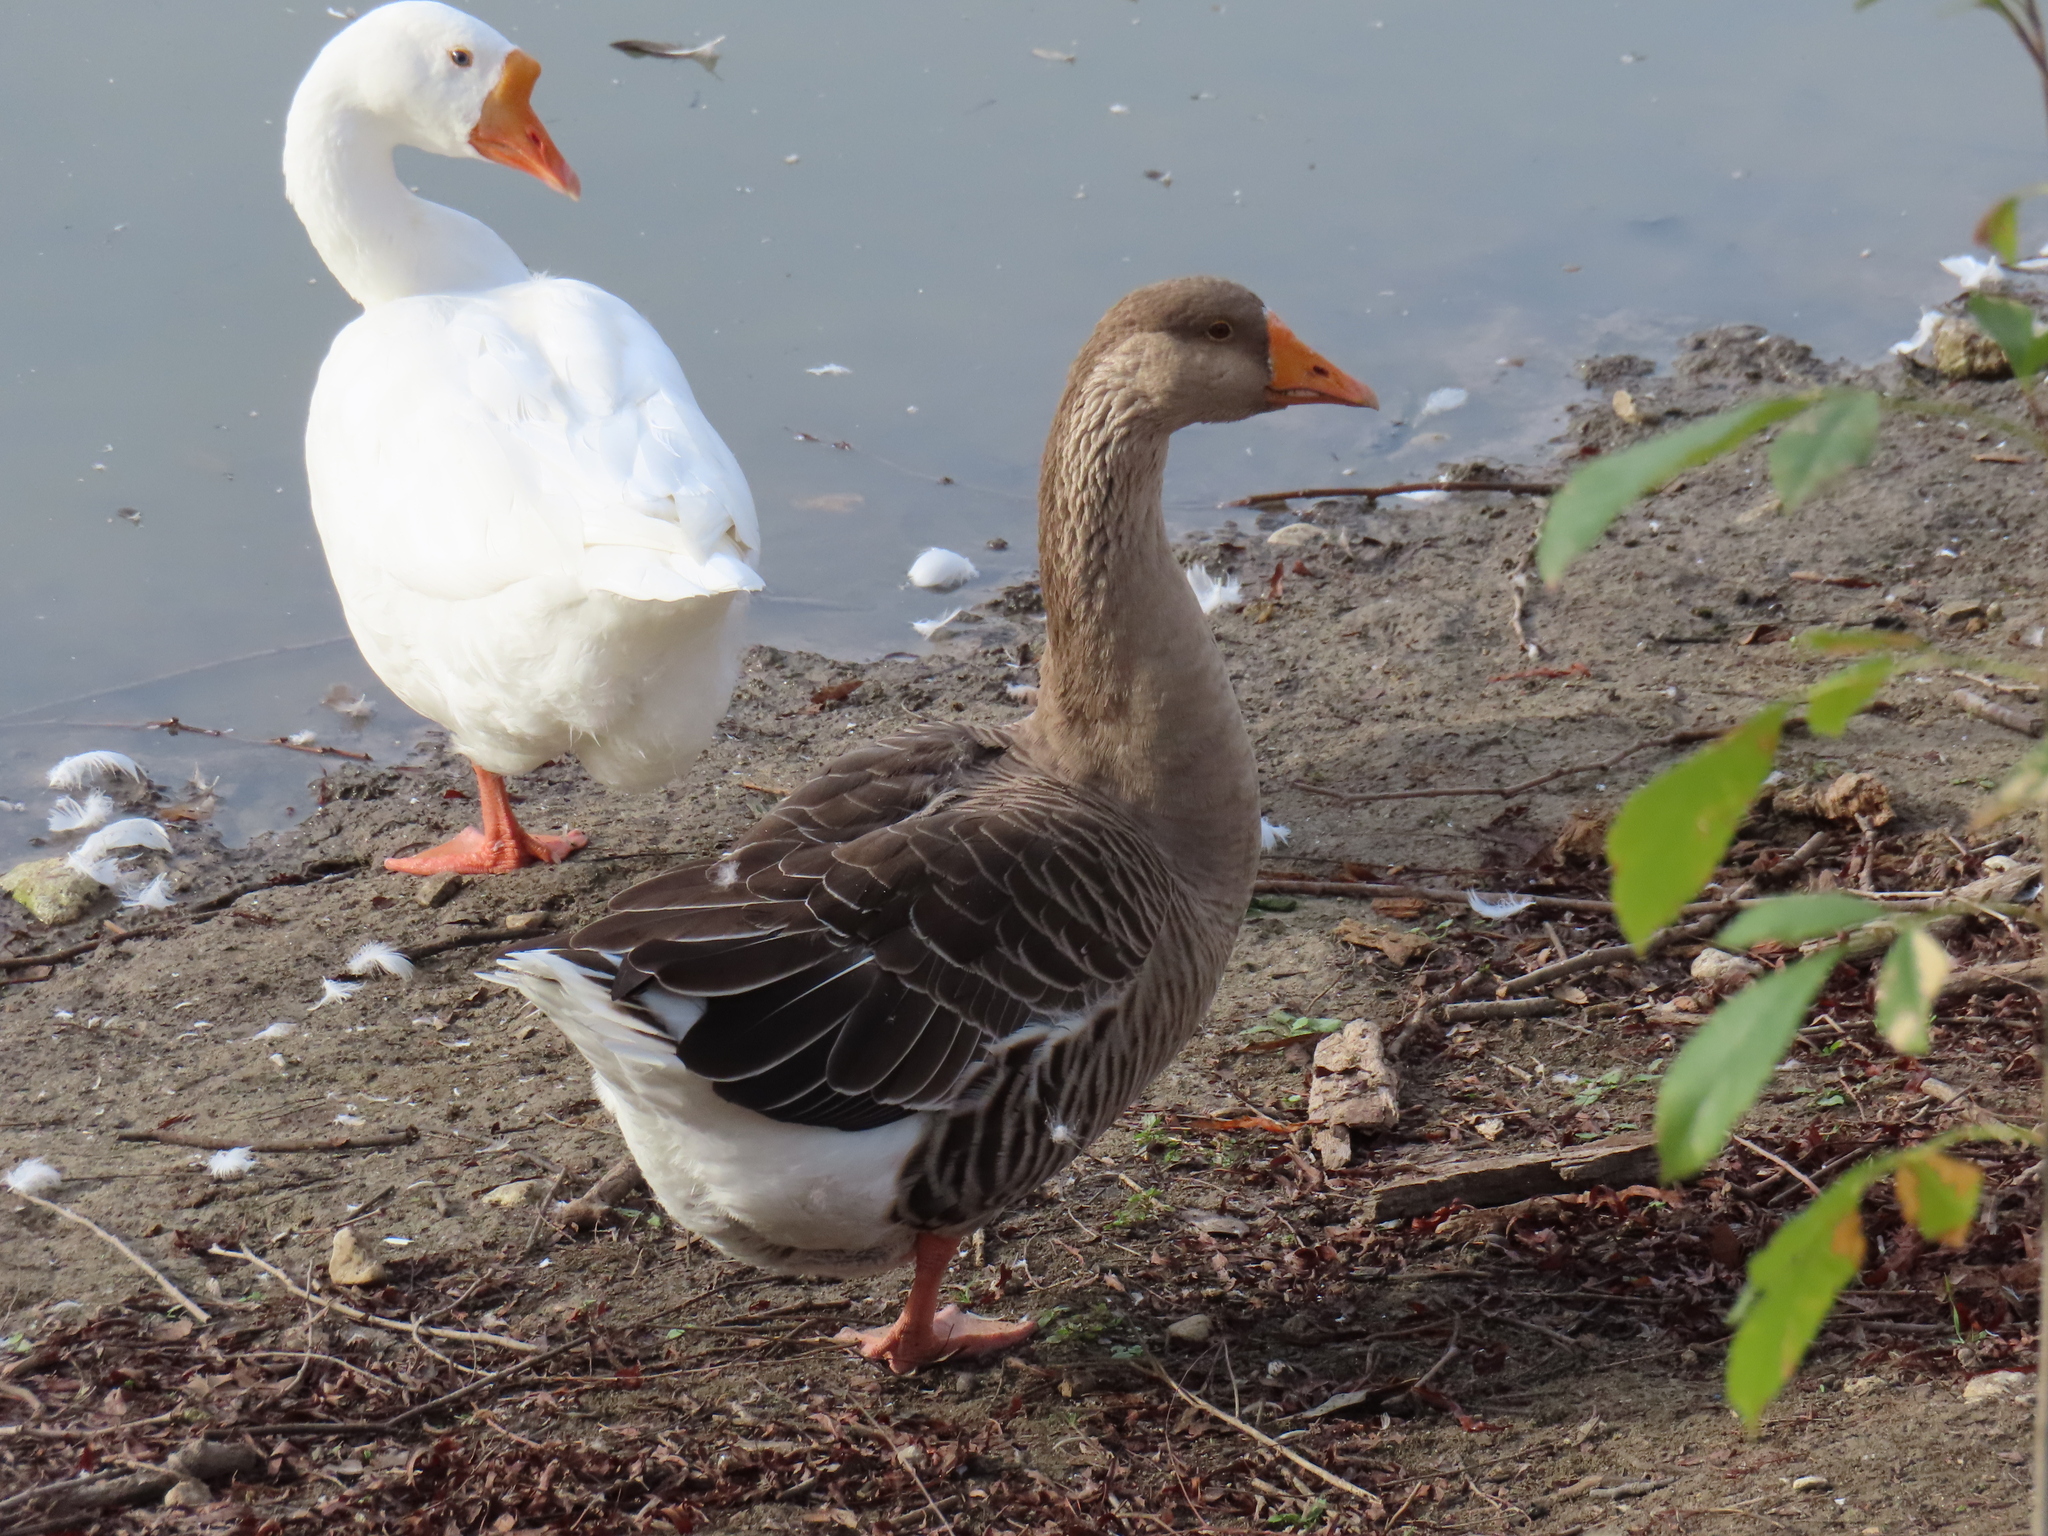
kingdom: Animalia
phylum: Chordata
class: Aves
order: Anseriformes
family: Anatidae
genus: Anser
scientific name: Anser
